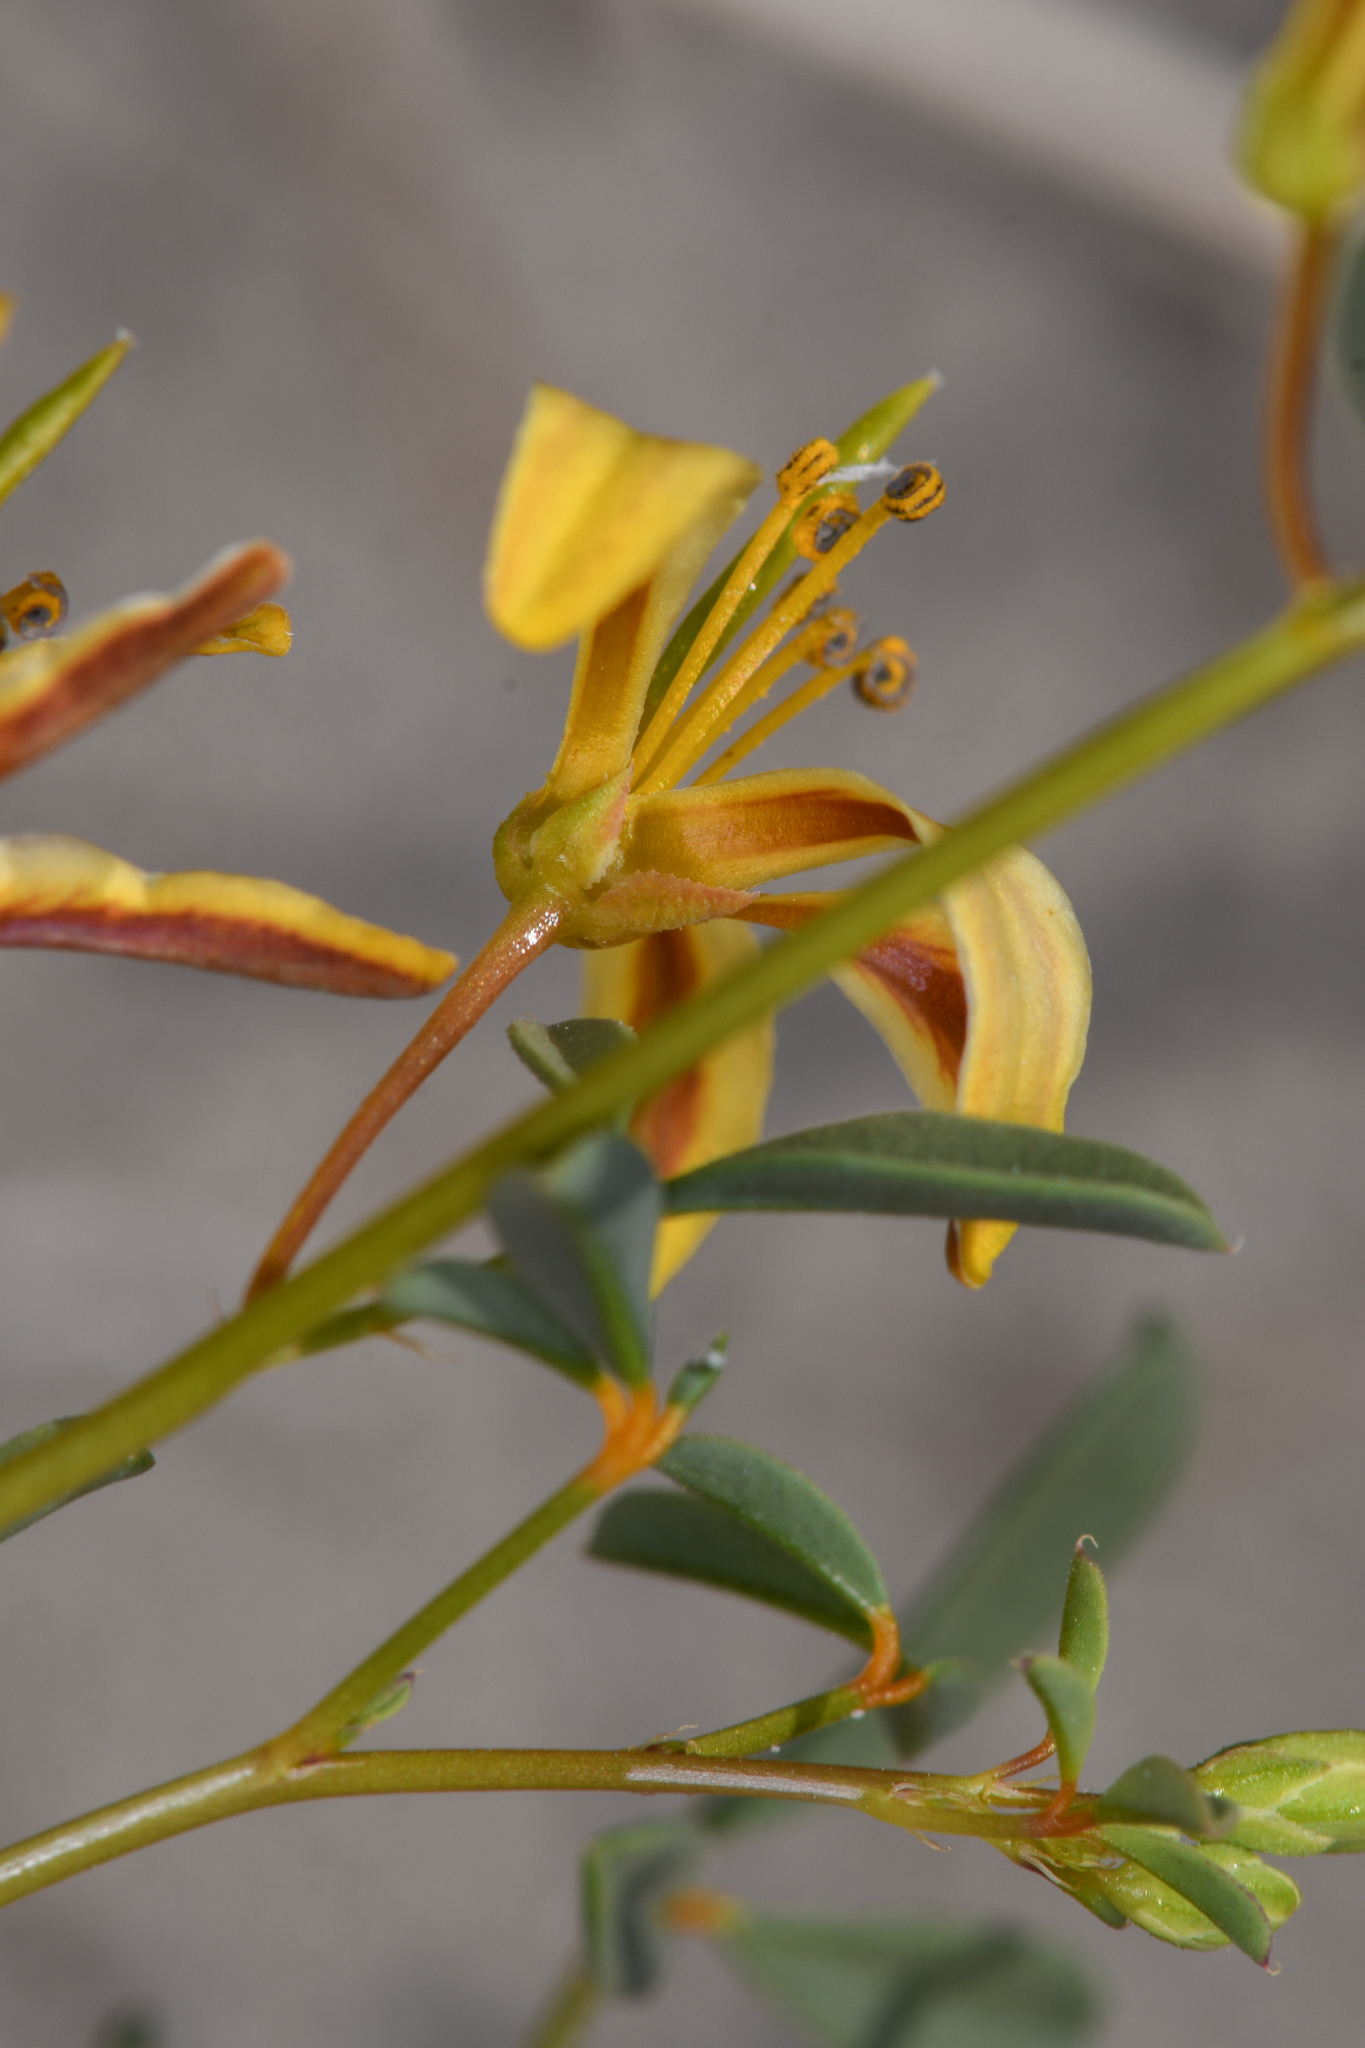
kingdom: Plantae
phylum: Tracheophyta
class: Magnoliopsida
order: Brassicales
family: Cleomaceae
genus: Cleomella
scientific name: Cleomella sparsifolia
